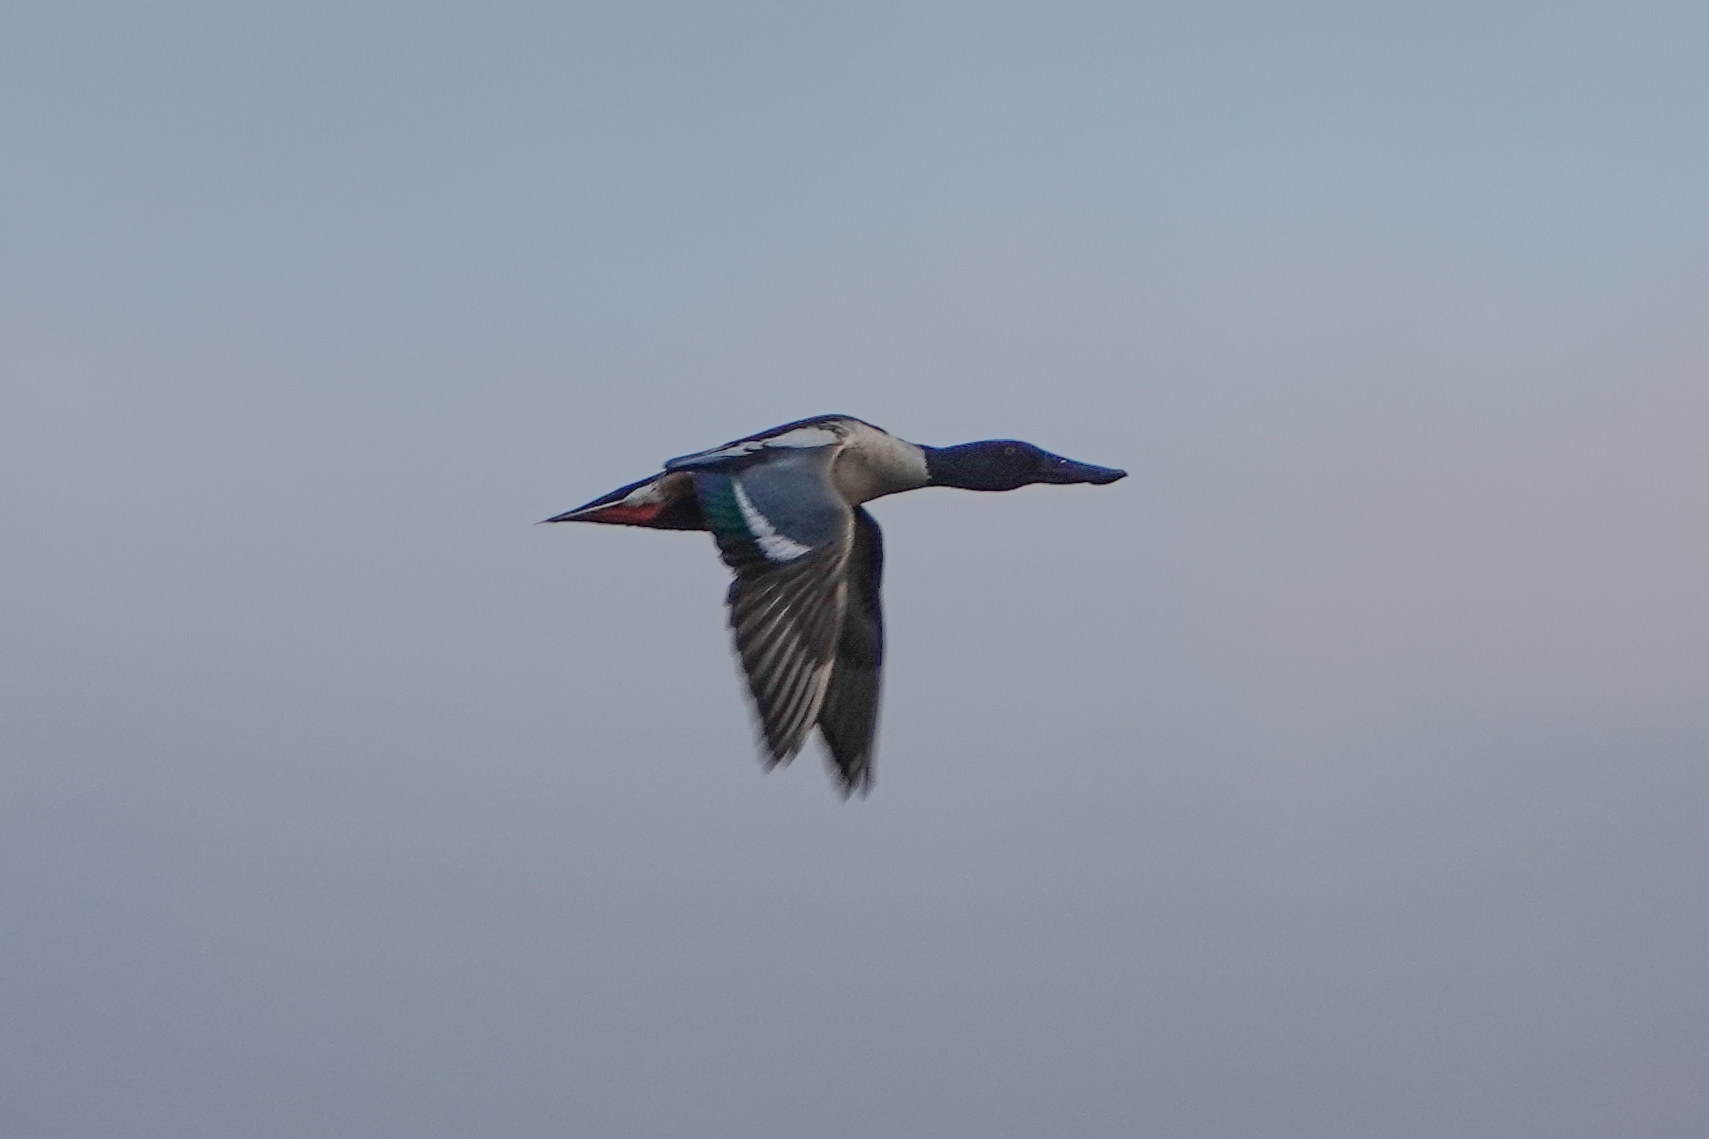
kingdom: Animalia
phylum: Chordata
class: Aves
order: Anseriformes
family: Anatidae
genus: Spatula
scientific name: Spatula clypeata
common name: Northern shoveler
